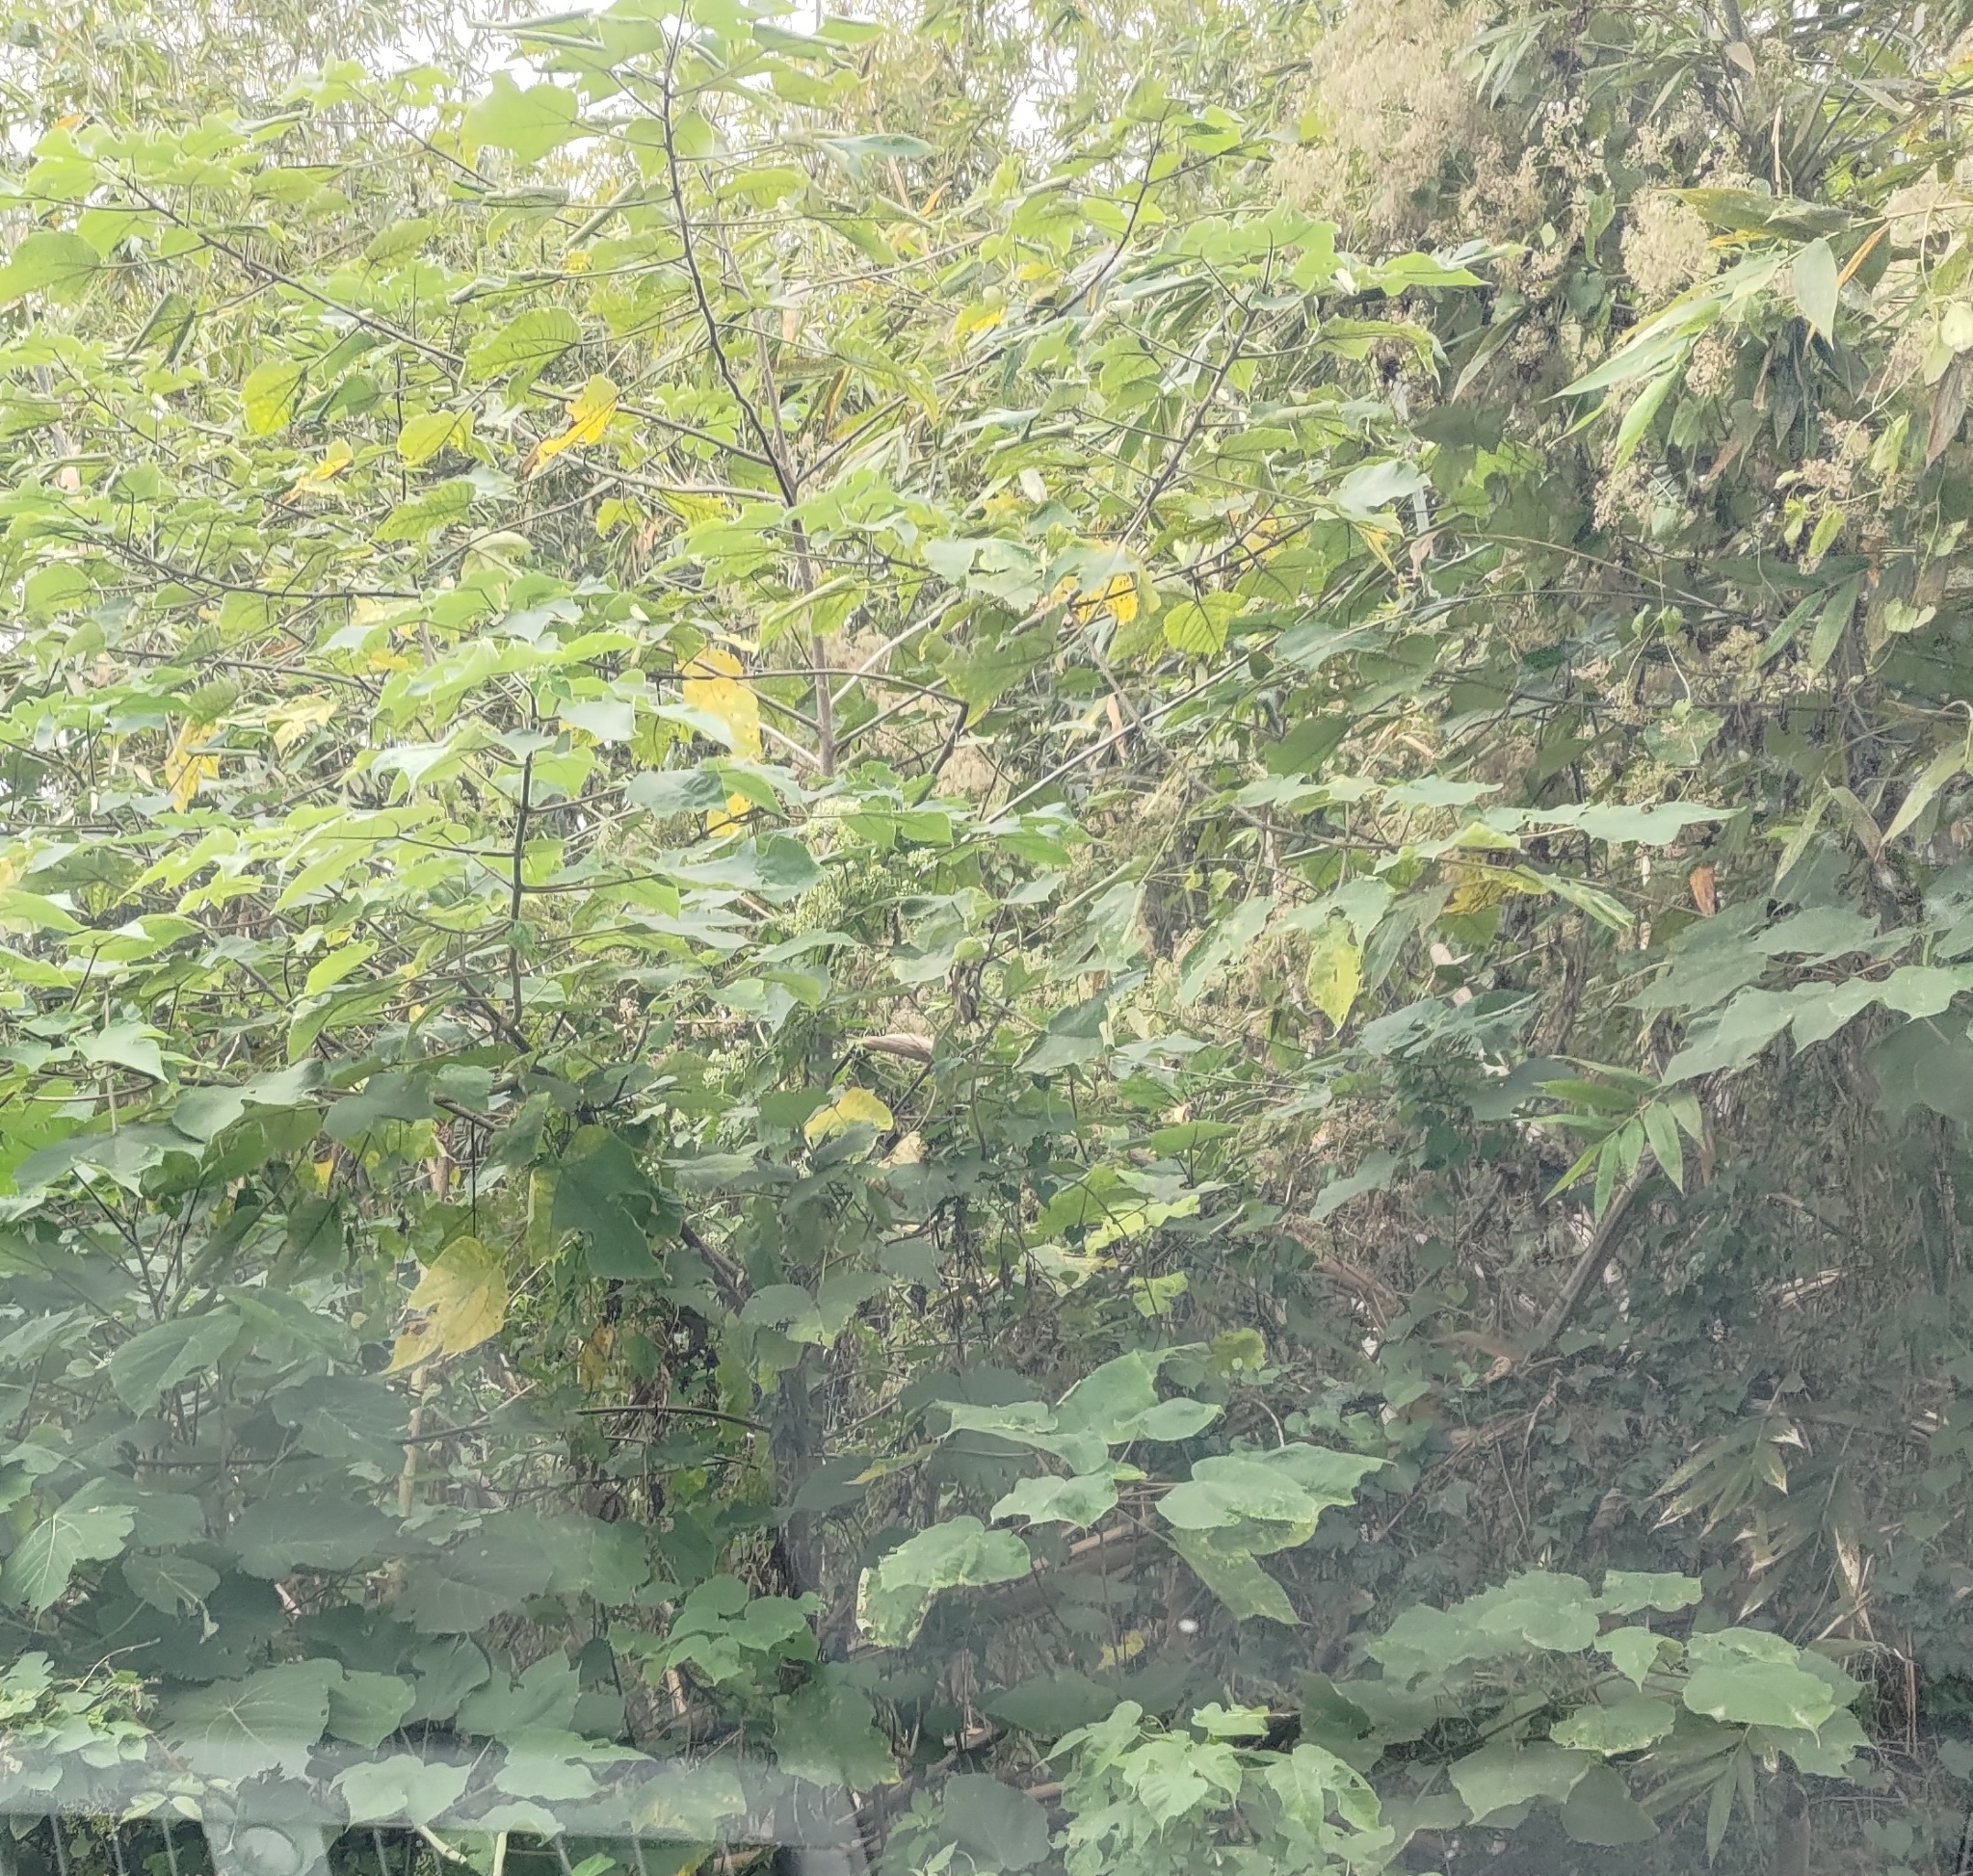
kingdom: Plantae
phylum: Tracheophyta
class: Magnoliopsida
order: Rosales
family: Moraceae
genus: Broussonetia
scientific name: Broussonetia papyrifera
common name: Paper mulberry
